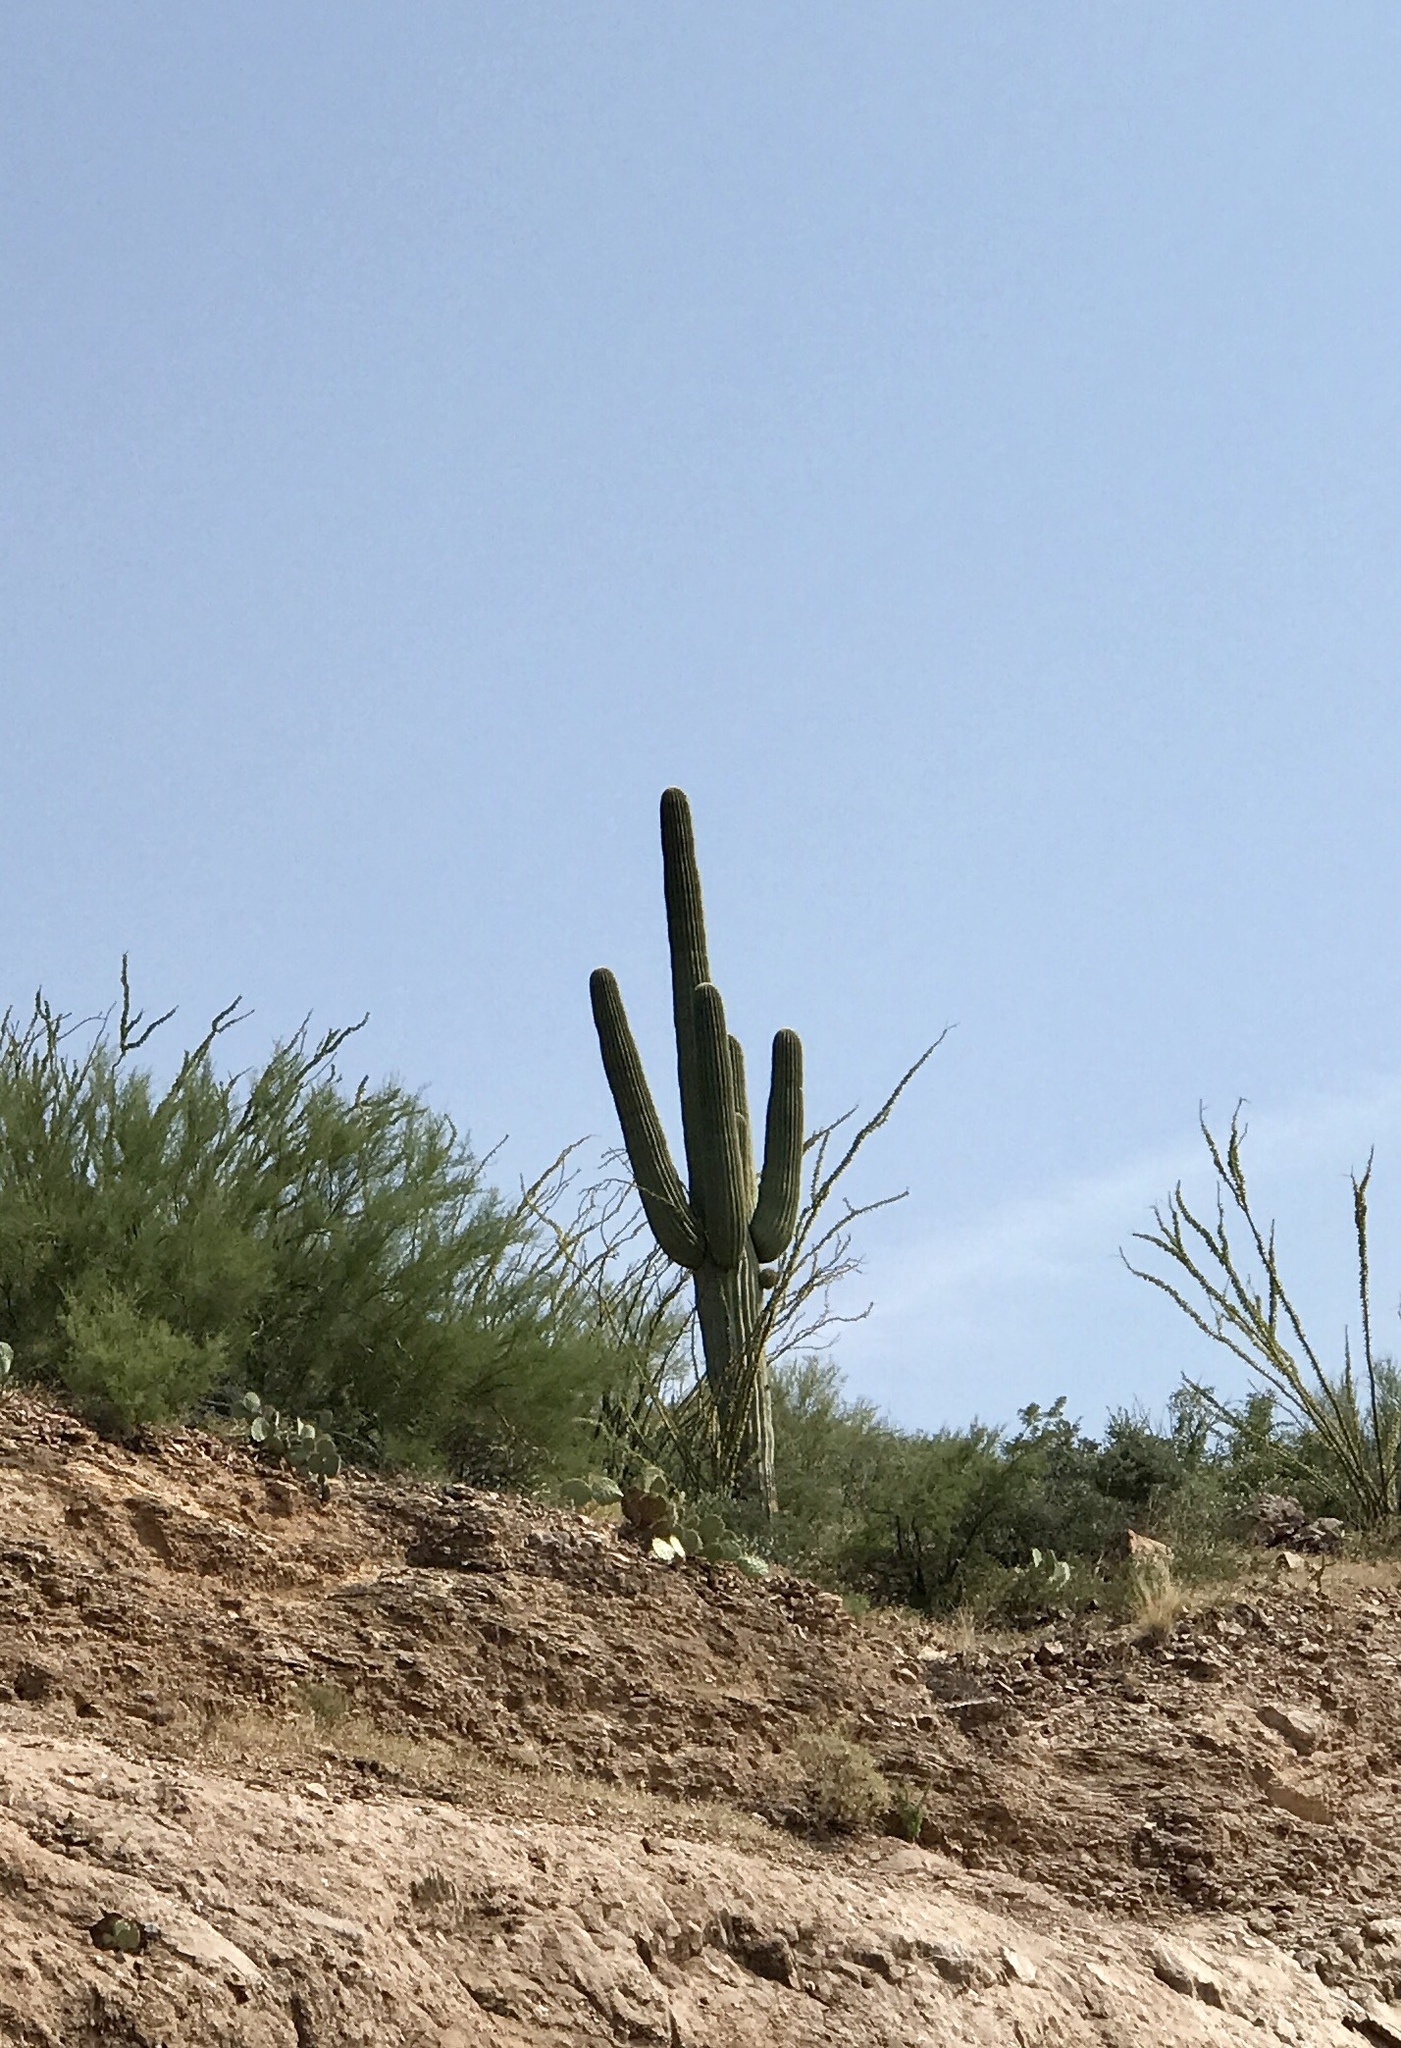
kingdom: Plantae
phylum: Tracheophyta
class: Magnoliopsida
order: Caryophyllales
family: Cactaceae
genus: Carnegiea
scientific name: Carnegiea gigantea
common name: Saguaro
